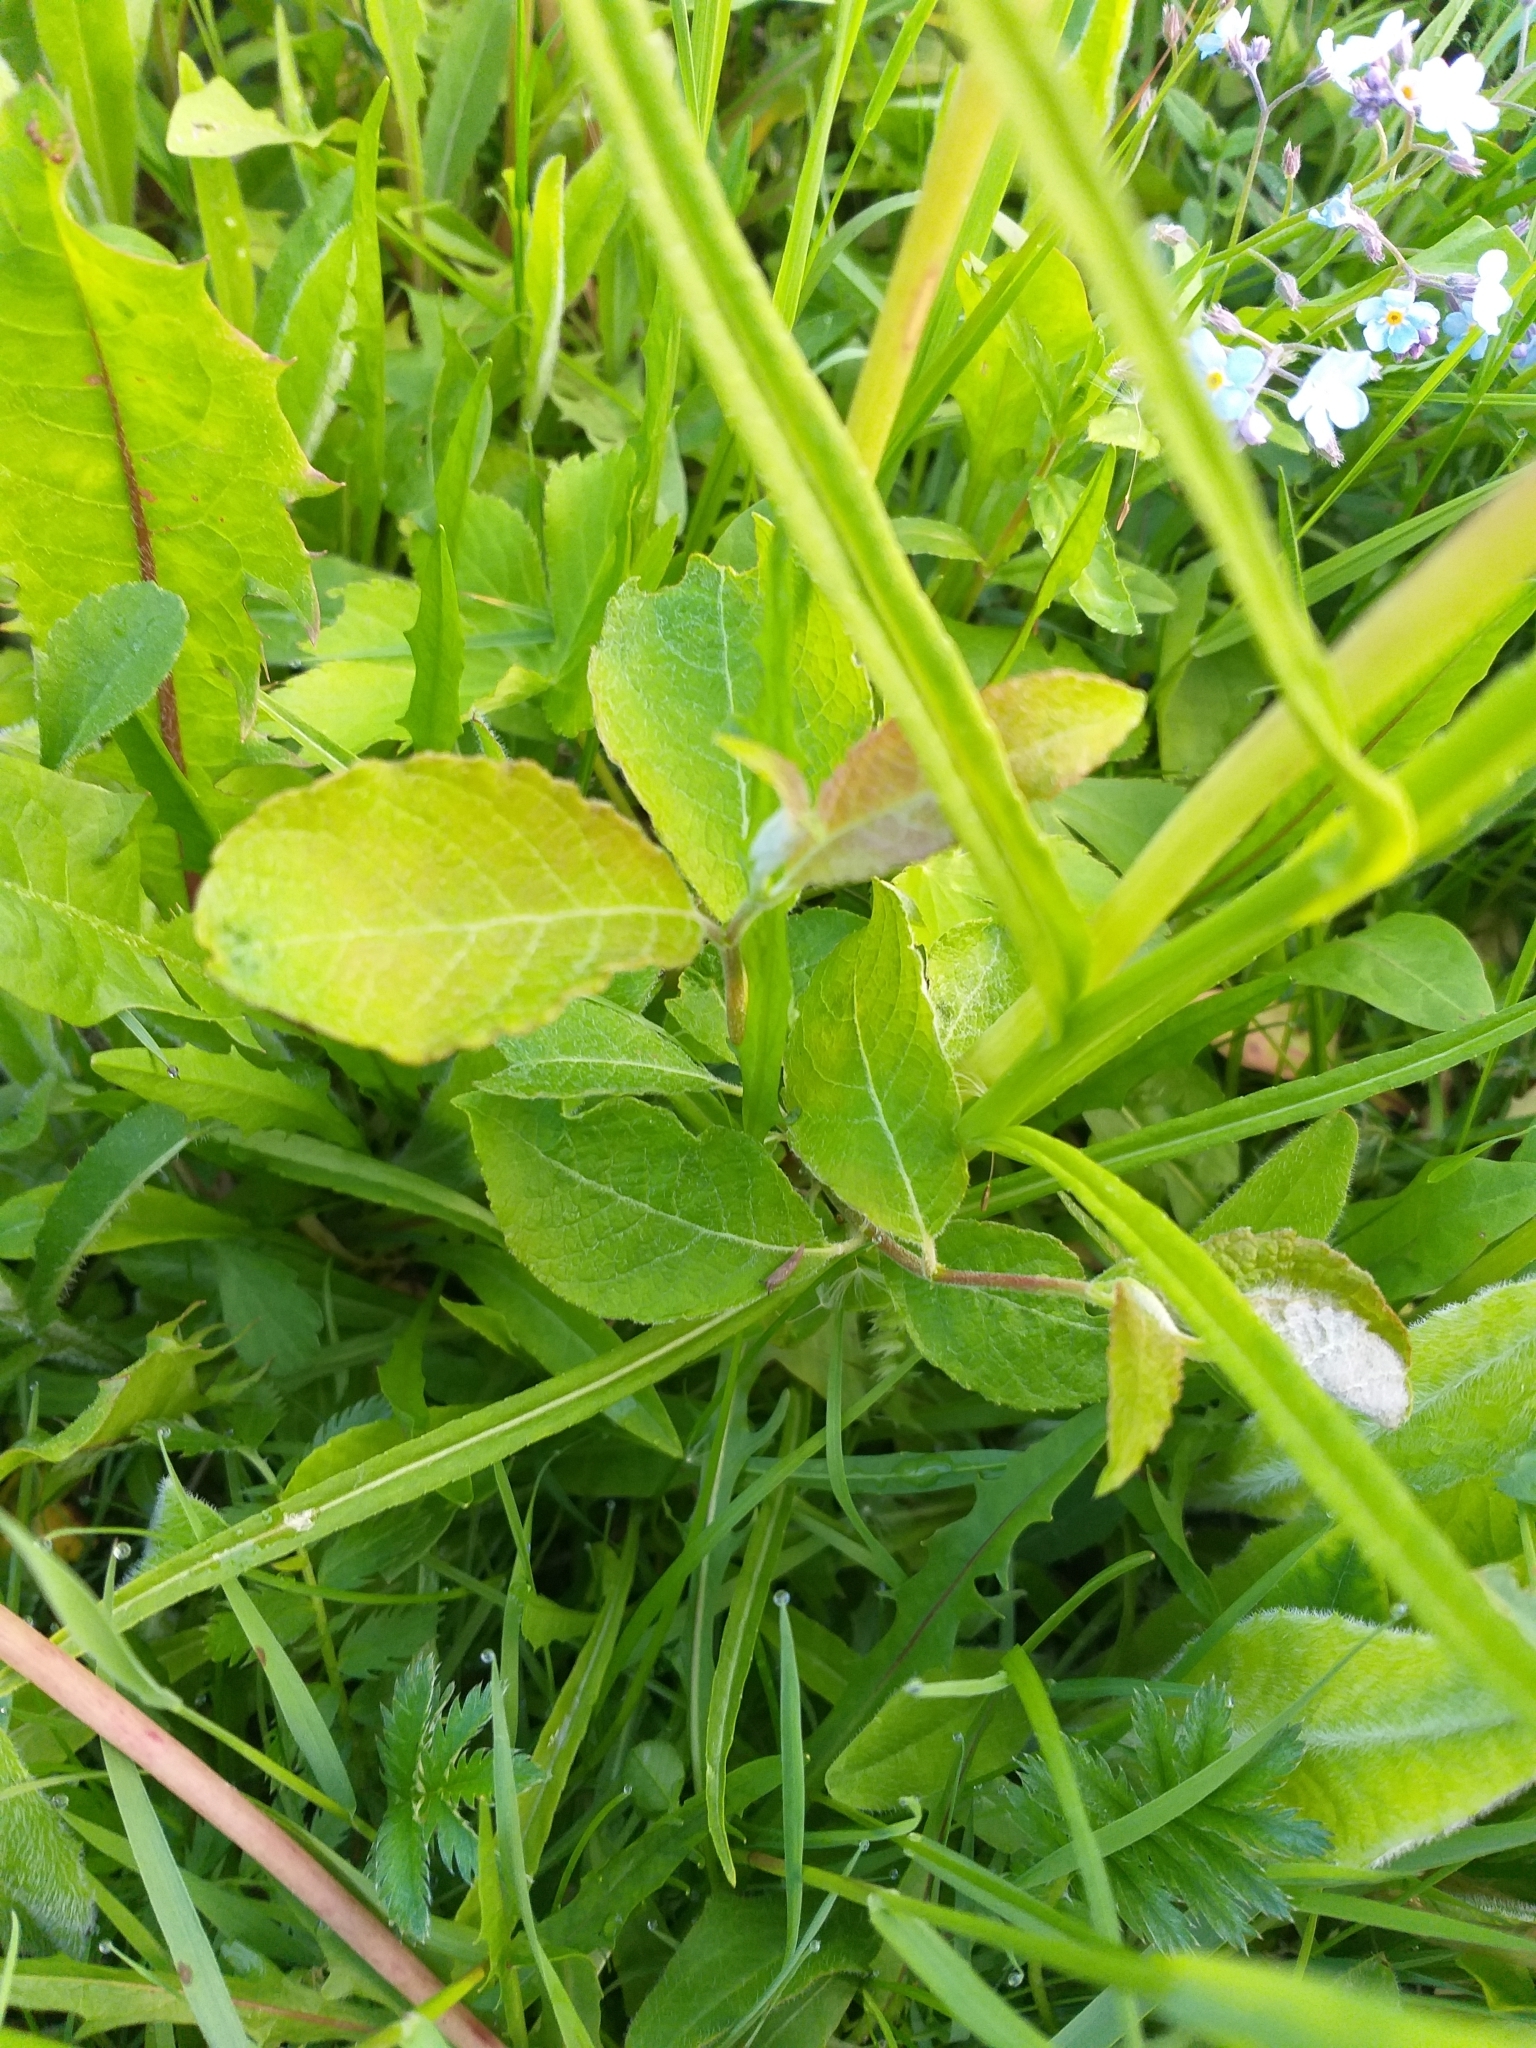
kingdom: Plantae
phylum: Tracheophyta
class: Magnoliopsida
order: Malpighiales
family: Salicaceae
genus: Salix
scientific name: Salix caprea
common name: Goat willow
